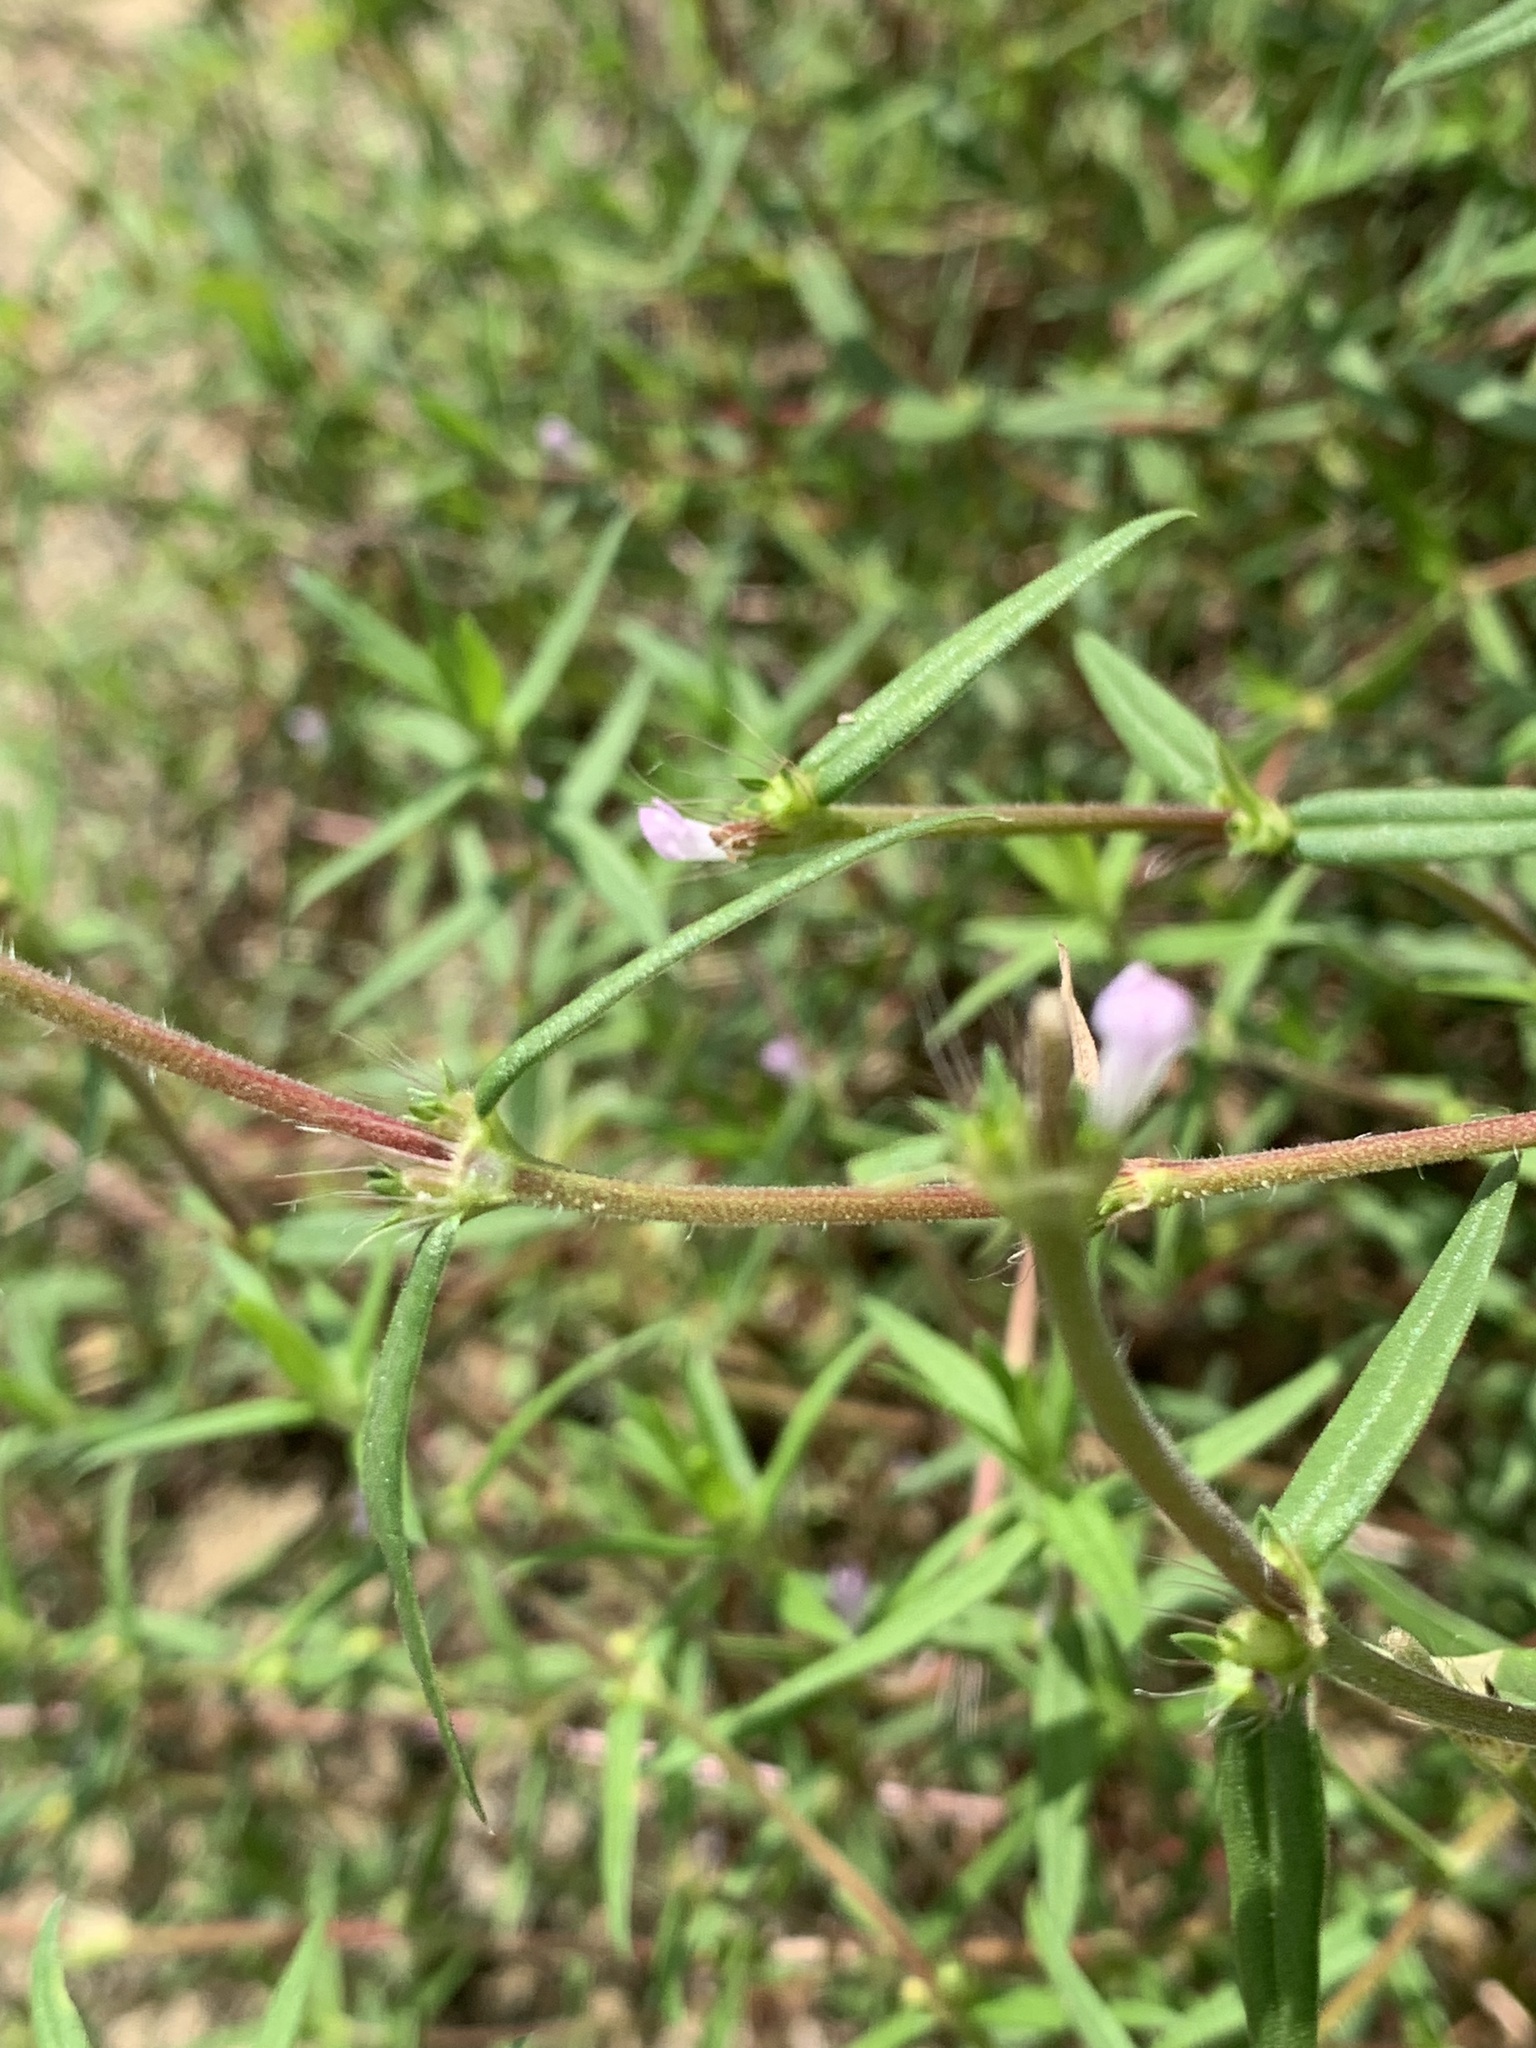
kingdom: Plantae
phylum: Tracheophyta
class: Magnoliopsida
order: Gentianales
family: Rubiaceae
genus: Hexasepalum
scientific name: Hexasepalum teres
